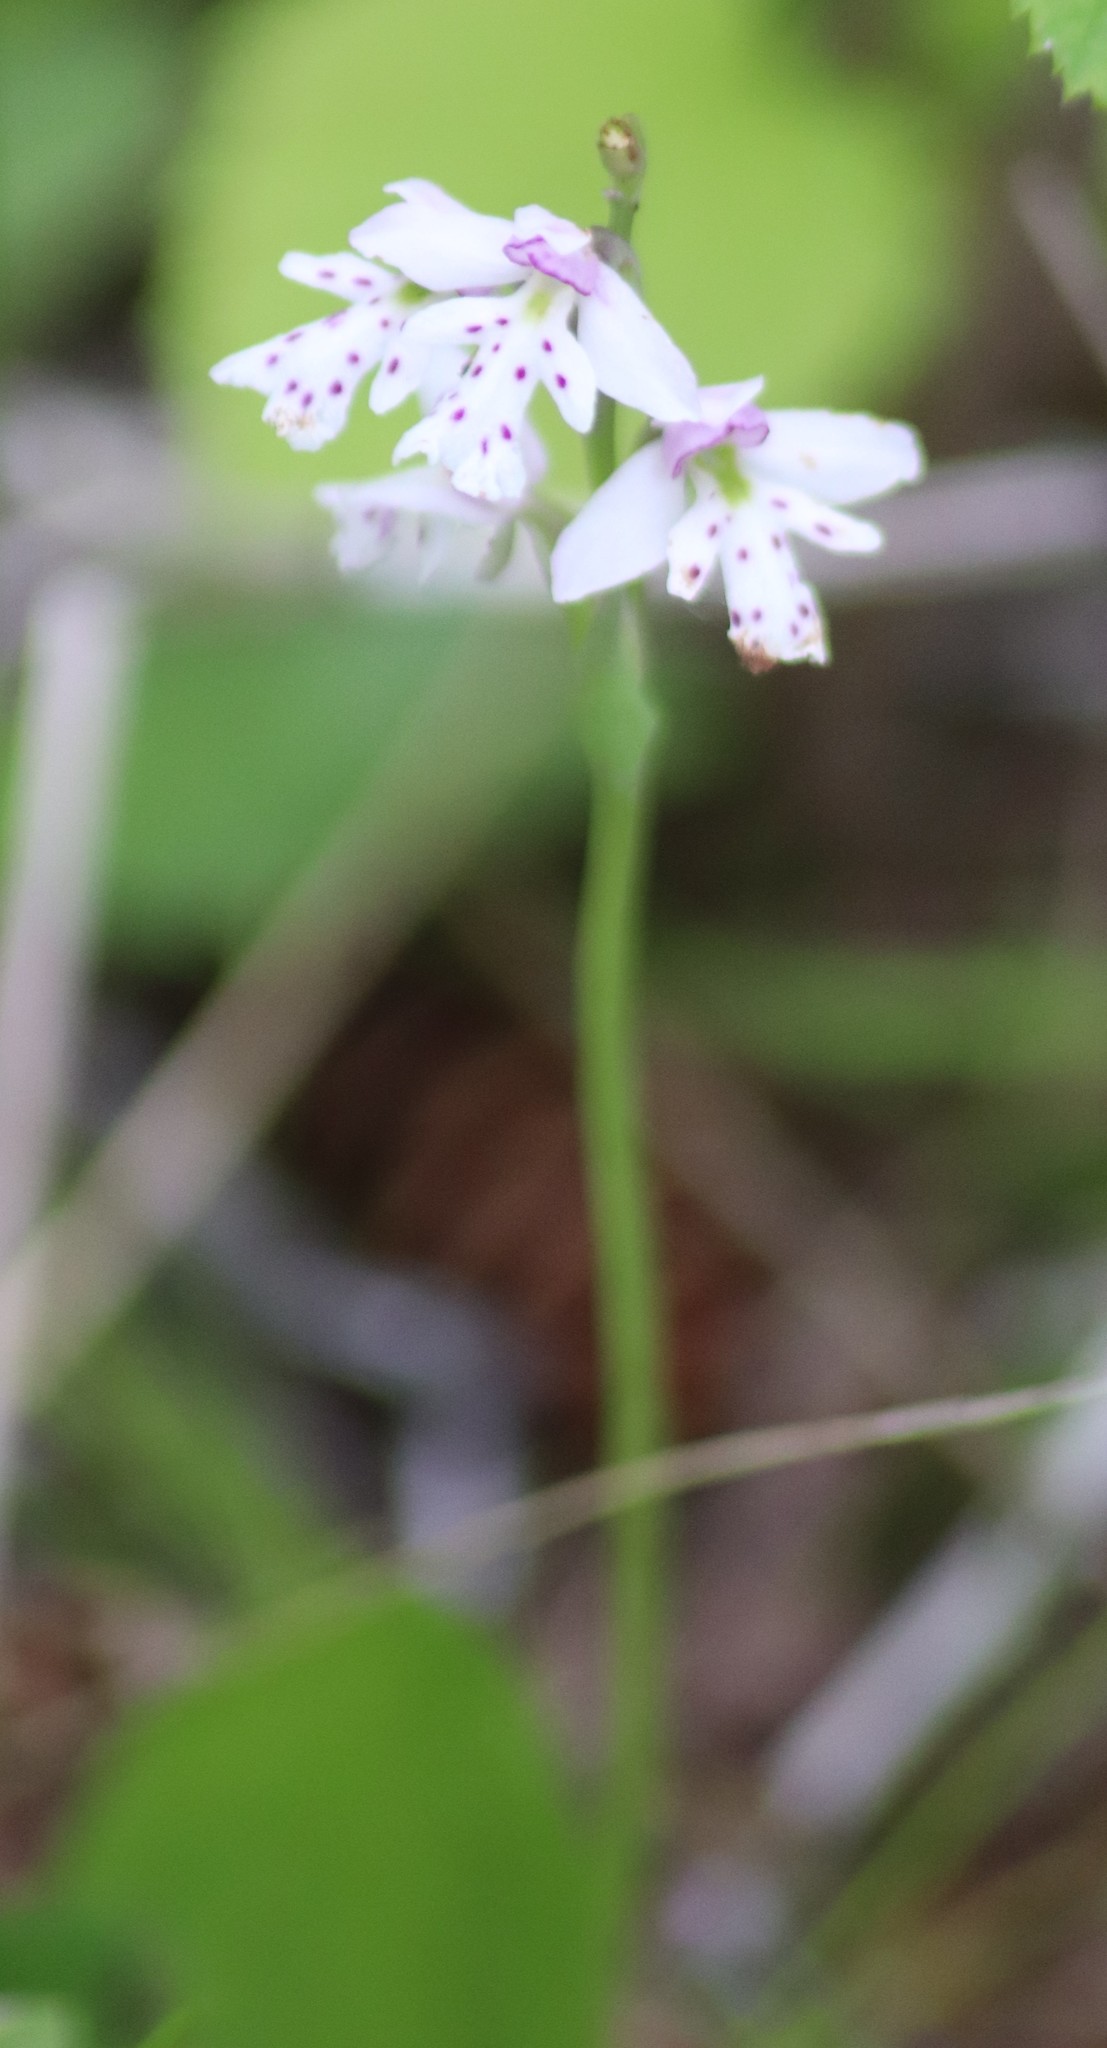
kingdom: Plantae
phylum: Tracheophyta
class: Liliopsida
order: Asparagales
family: Orchidaceae
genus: Galearis
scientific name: Galearis rotundifolia
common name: One-leaved orchis
